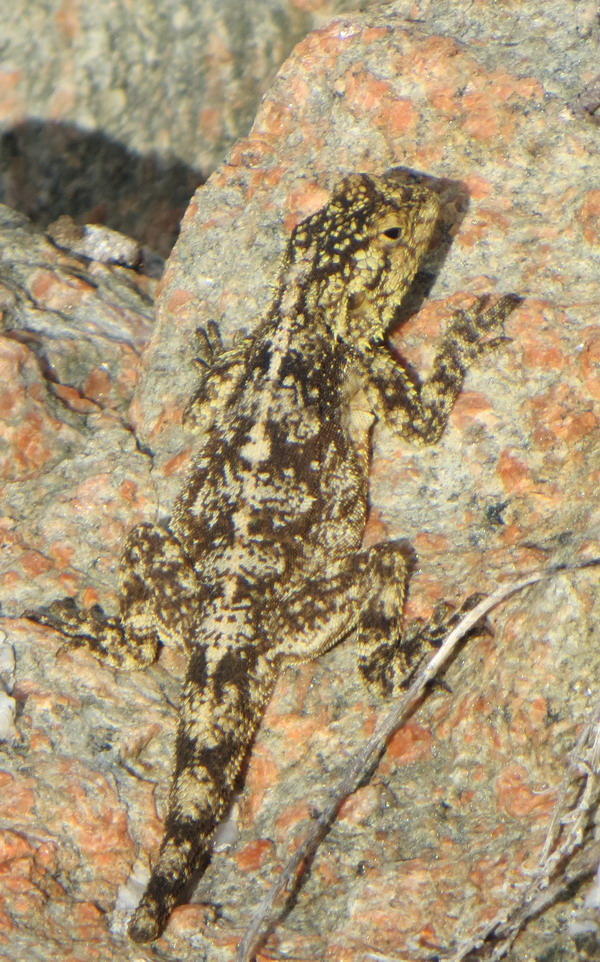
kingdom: Animalia
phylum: Chordata
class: Squamata
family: Agamidae
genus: Agama
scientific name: Agama atra
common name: Southern african rock agama
